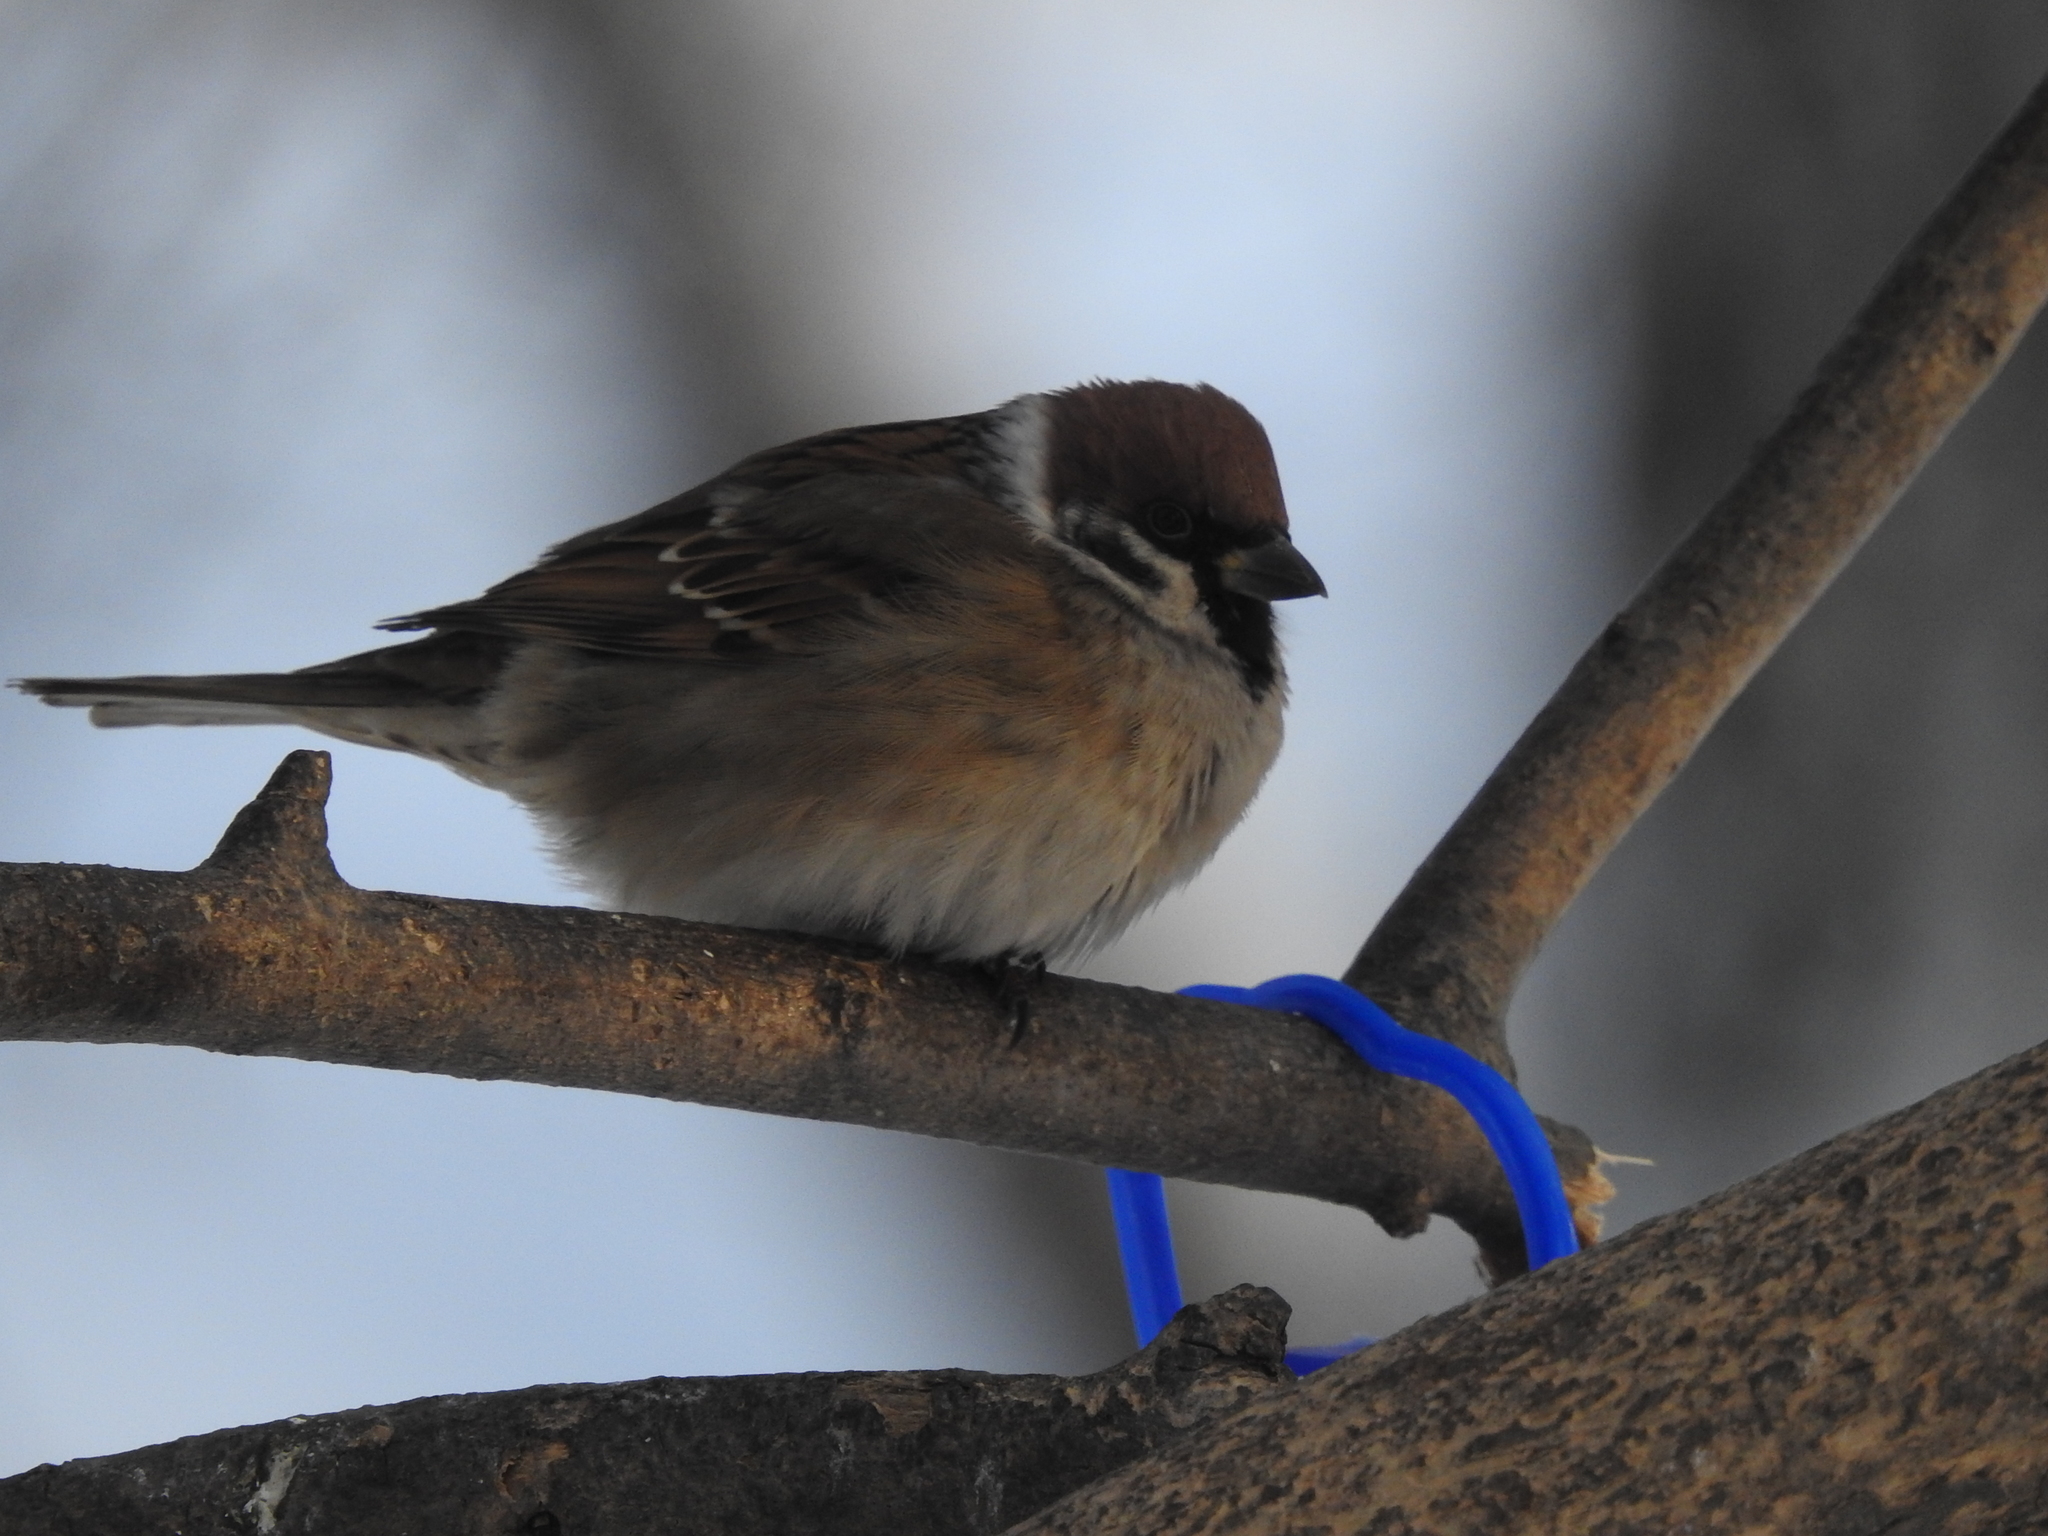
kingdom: Animalia
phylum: Chordata
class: Aves
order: Passeriformes
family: Passeridae
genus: Passer
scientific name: Passer montanus
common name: Eurasian tree sparrow
